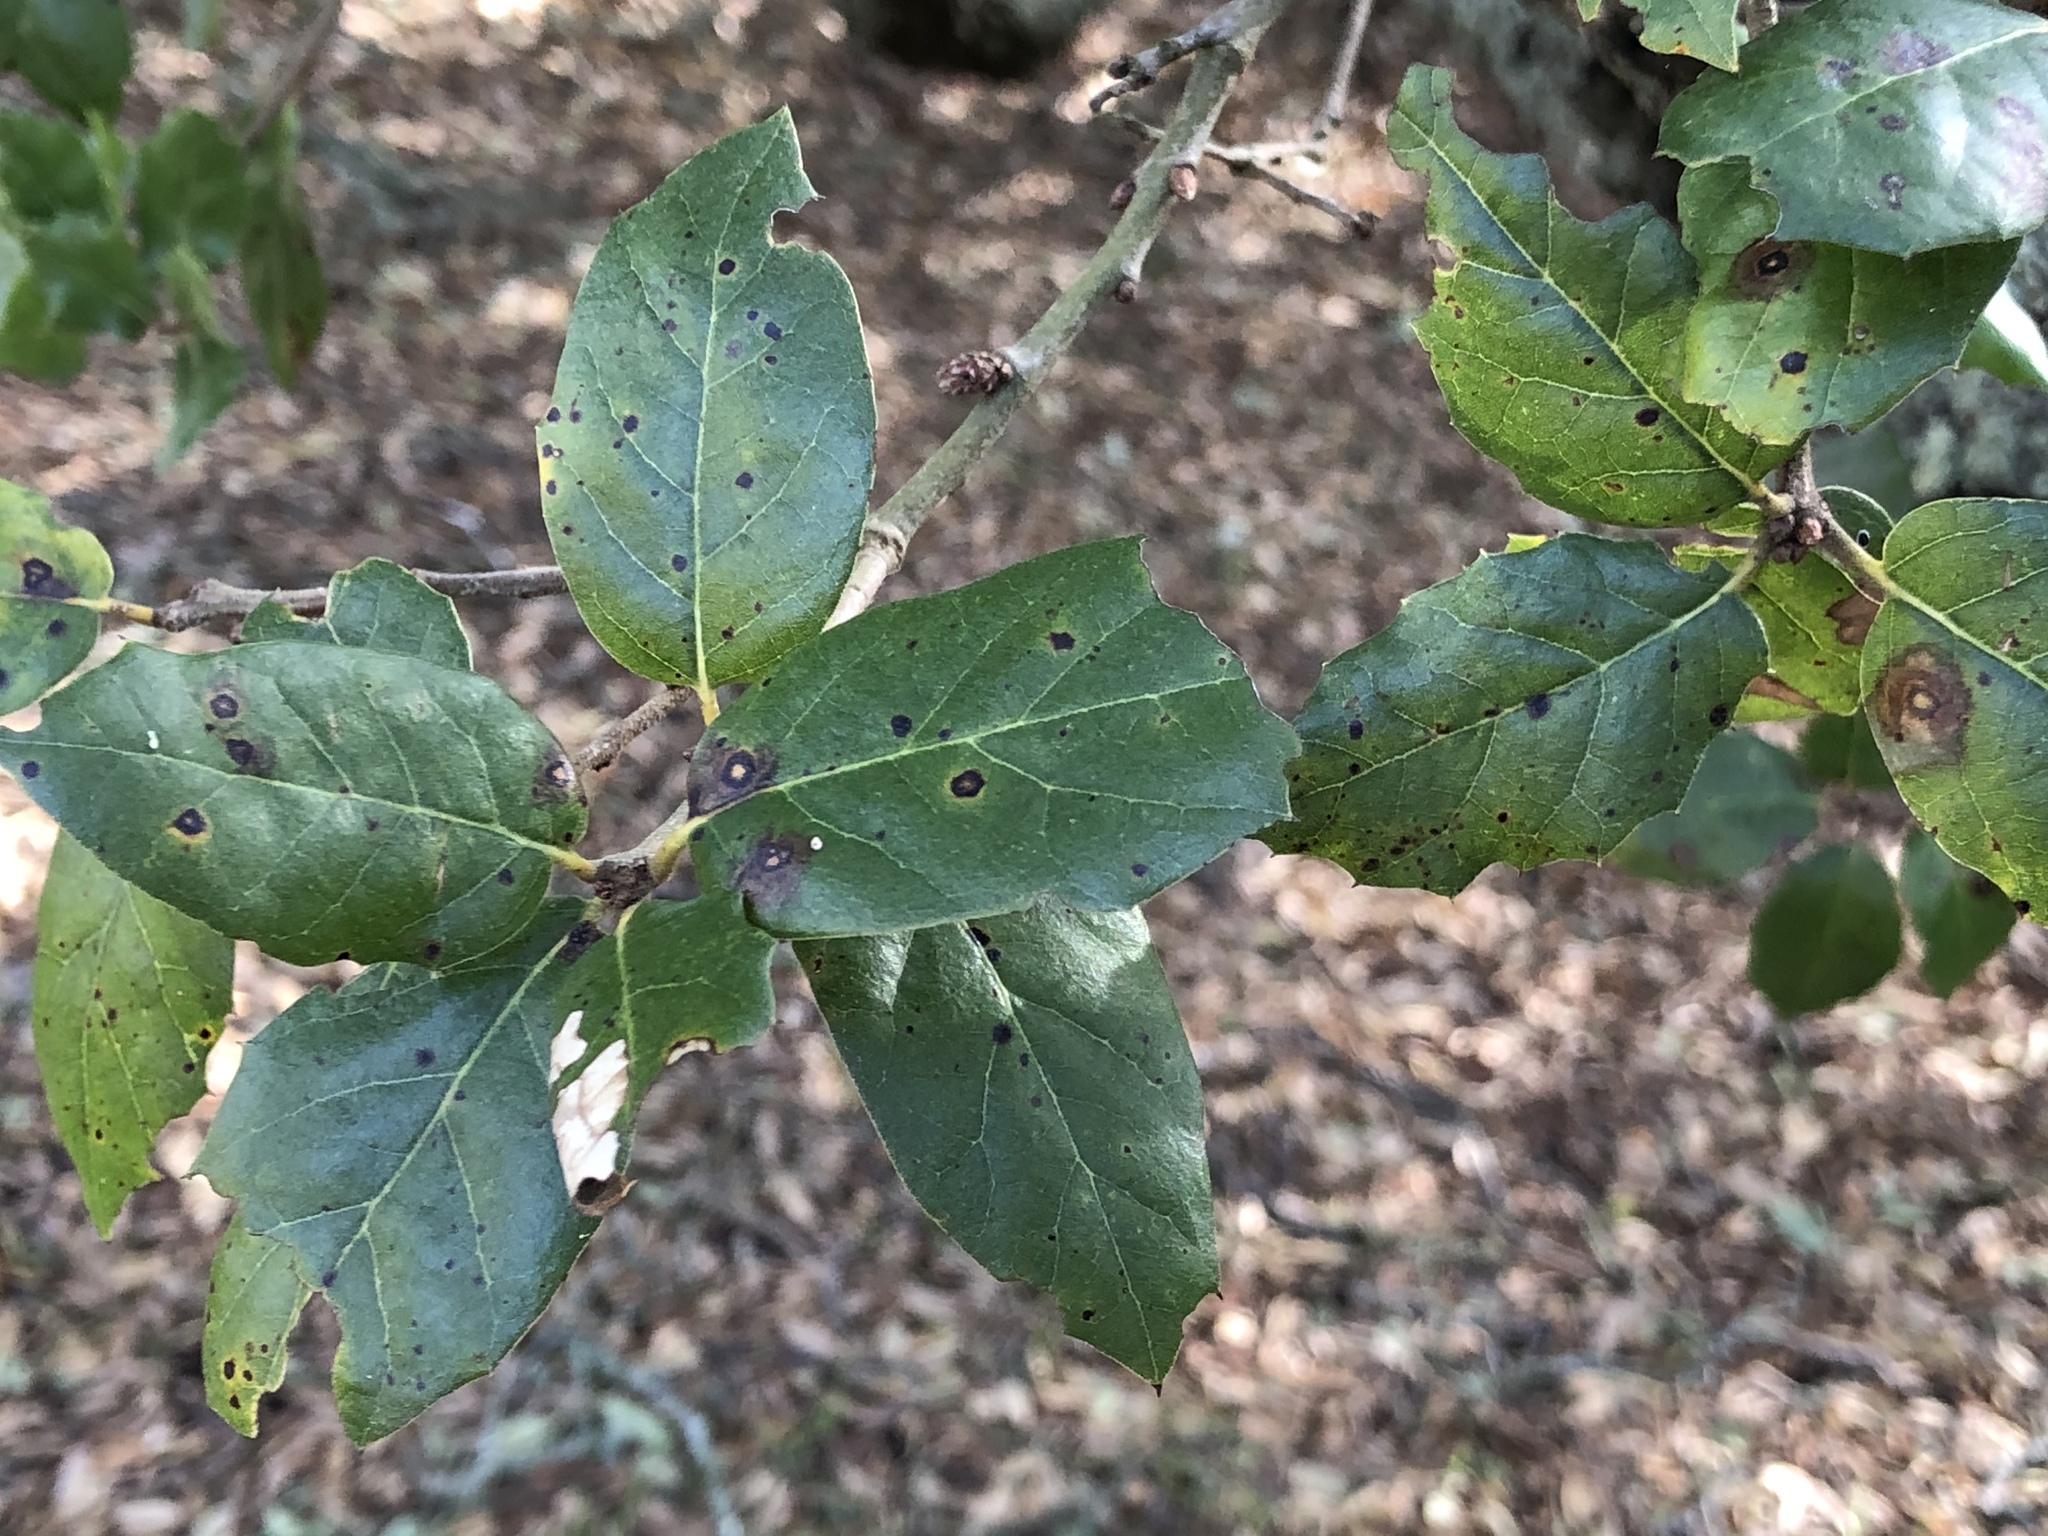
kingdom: Plantae
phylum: Tracheophyta
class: Magnoliopsida
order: Fagales
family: Fagaceae
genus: Quercus
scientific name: Quercus agrifolia
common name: California live oak
